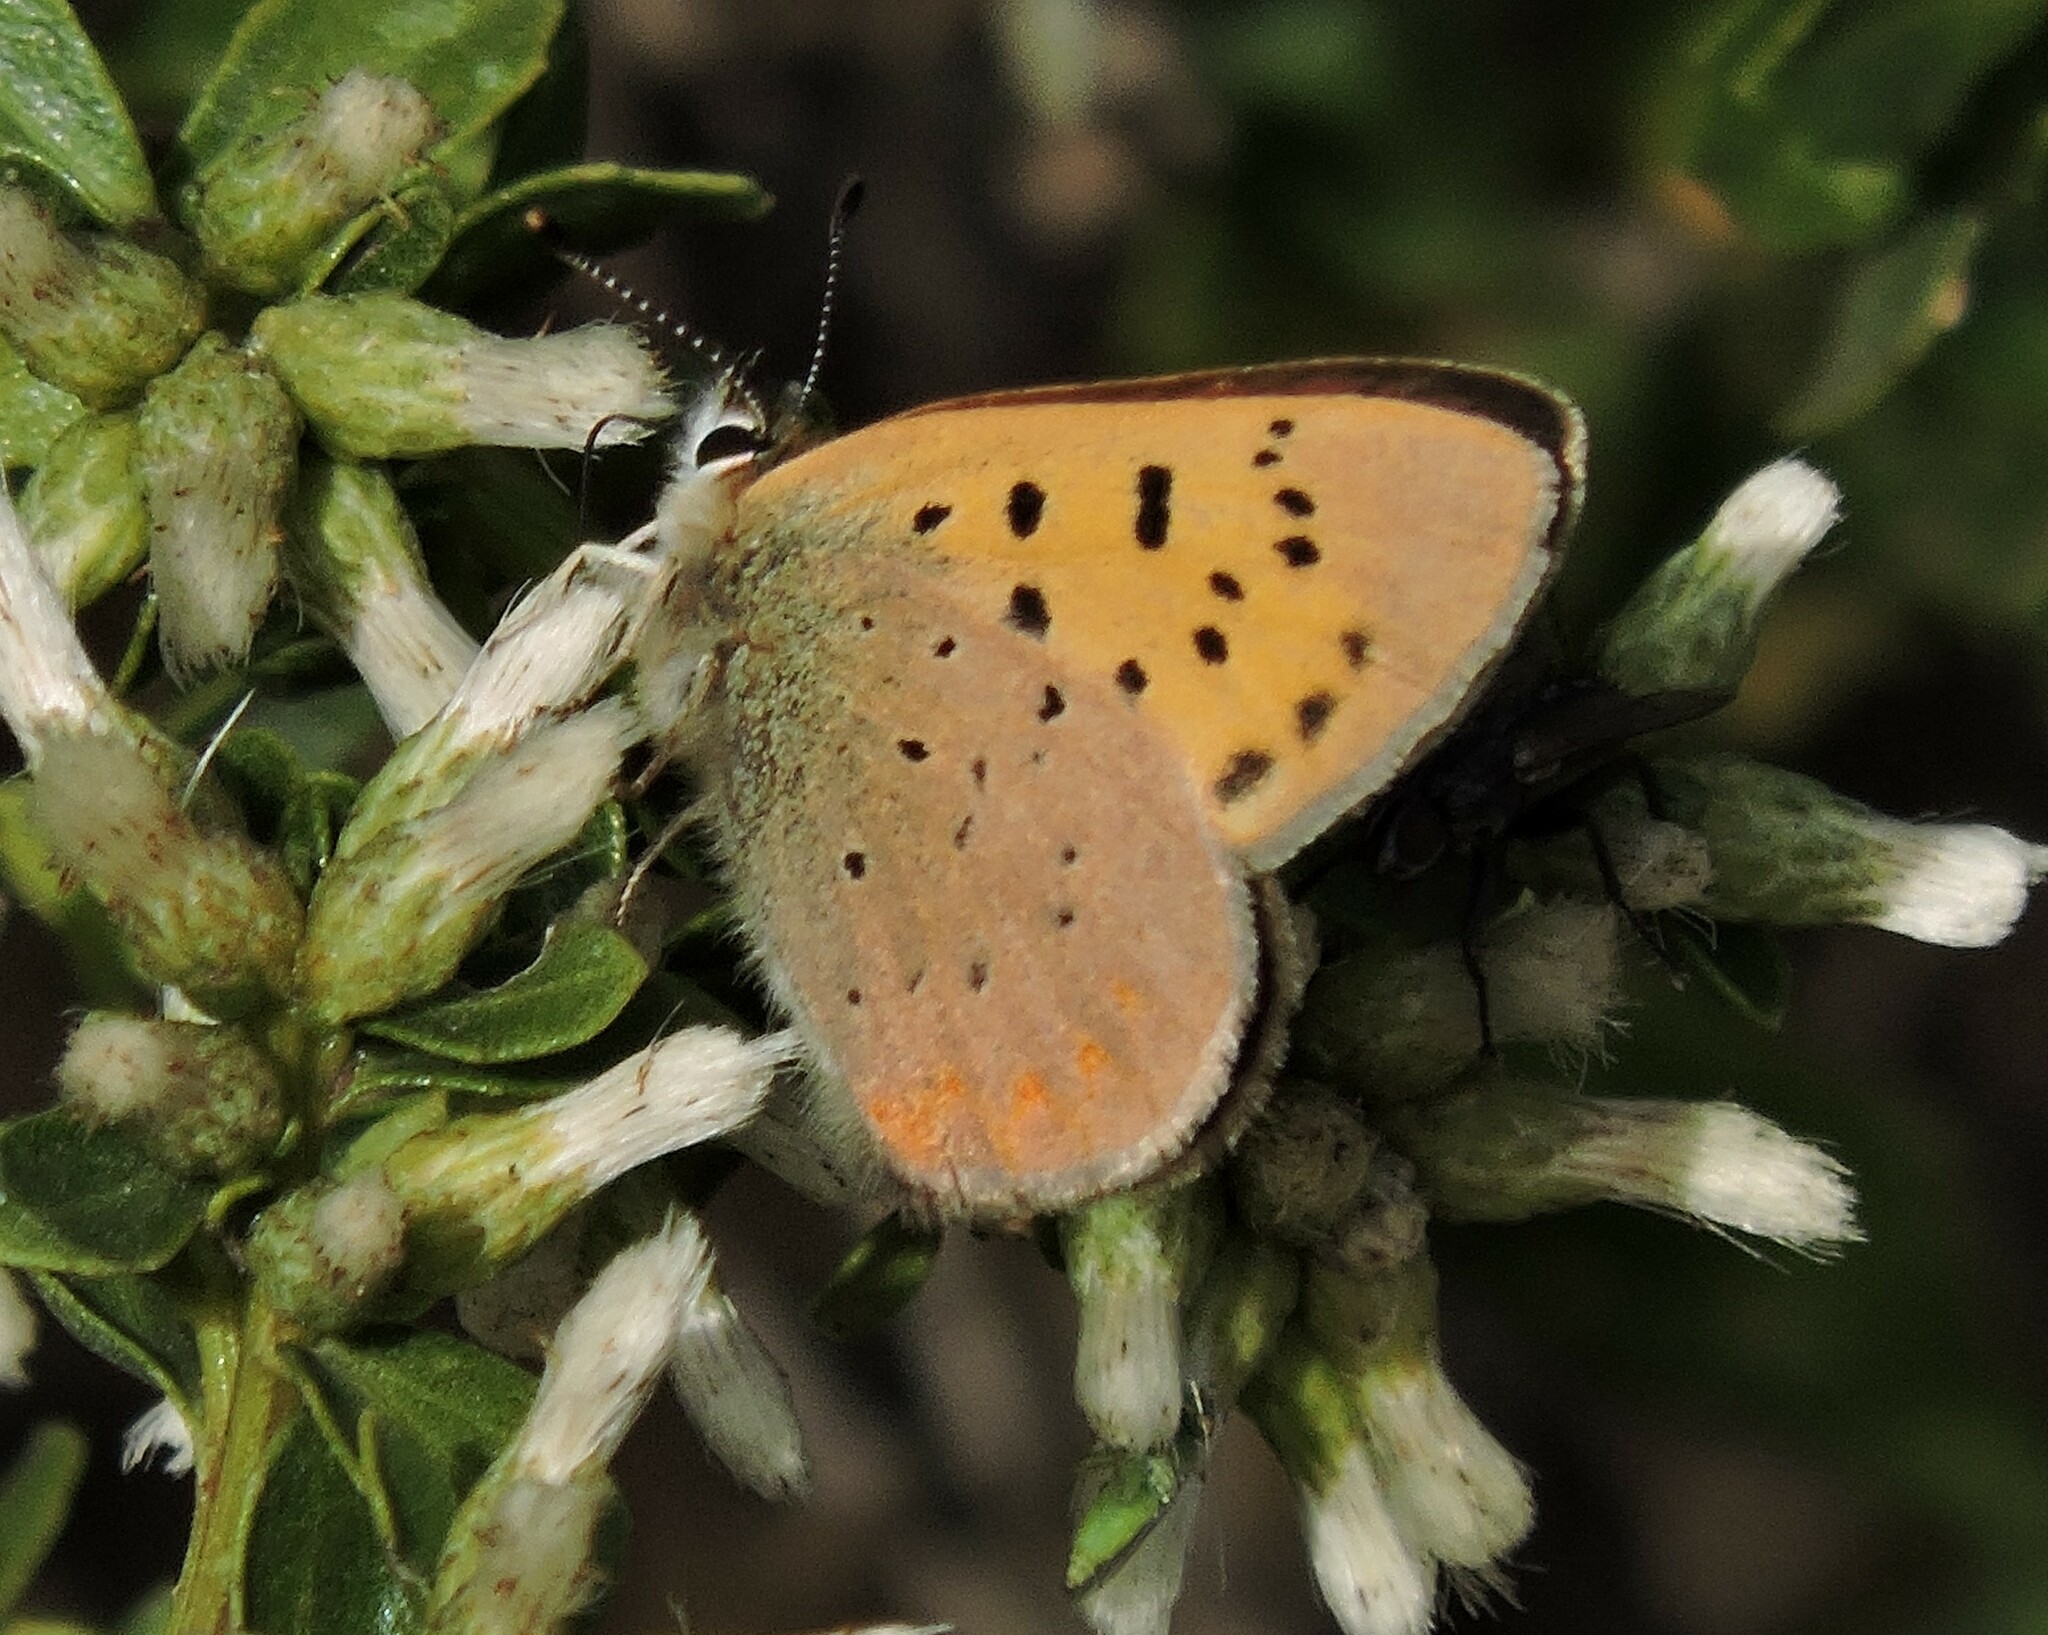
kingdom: Animalia
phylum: Arthropoda
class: Insecta
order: Lepidoptera
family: Lycaenidae
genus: Tharsalea
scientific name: Tharsalea helloides
